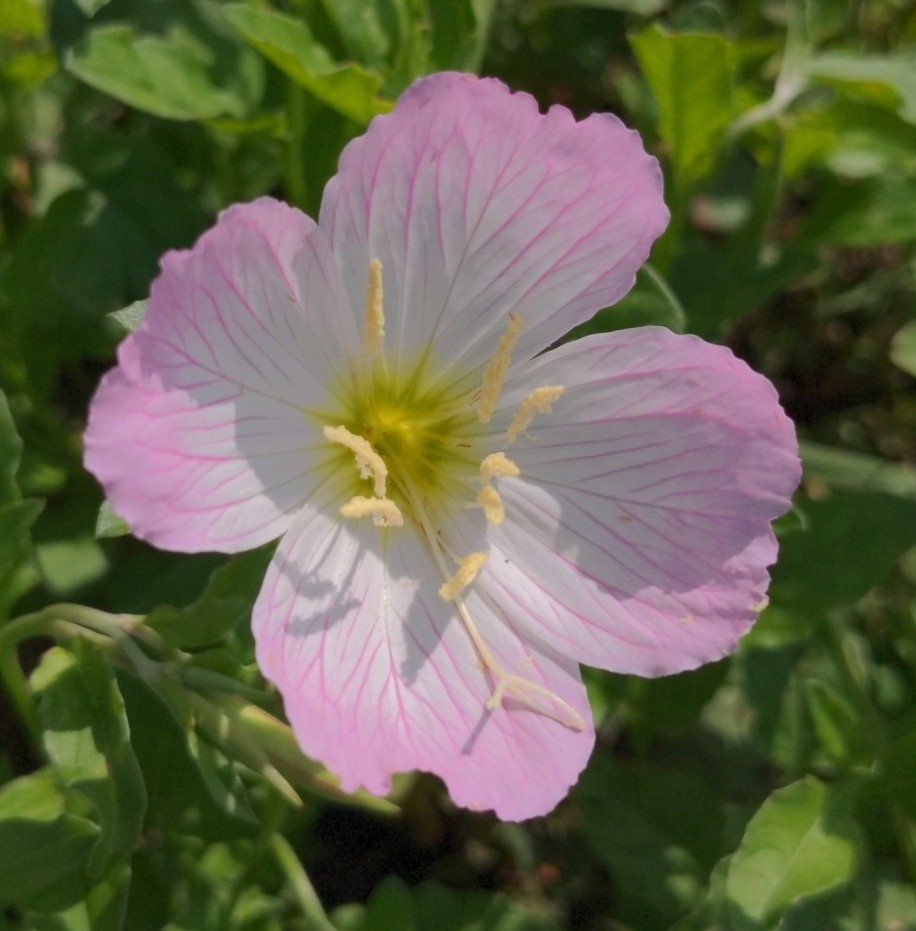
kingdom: Plantae
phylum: Tracheophyta
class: Magnoliopsida
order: Myrtales
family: Onagraceae
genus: Oenothera
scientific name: Oenothera speciosa
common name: White evening-primrose
